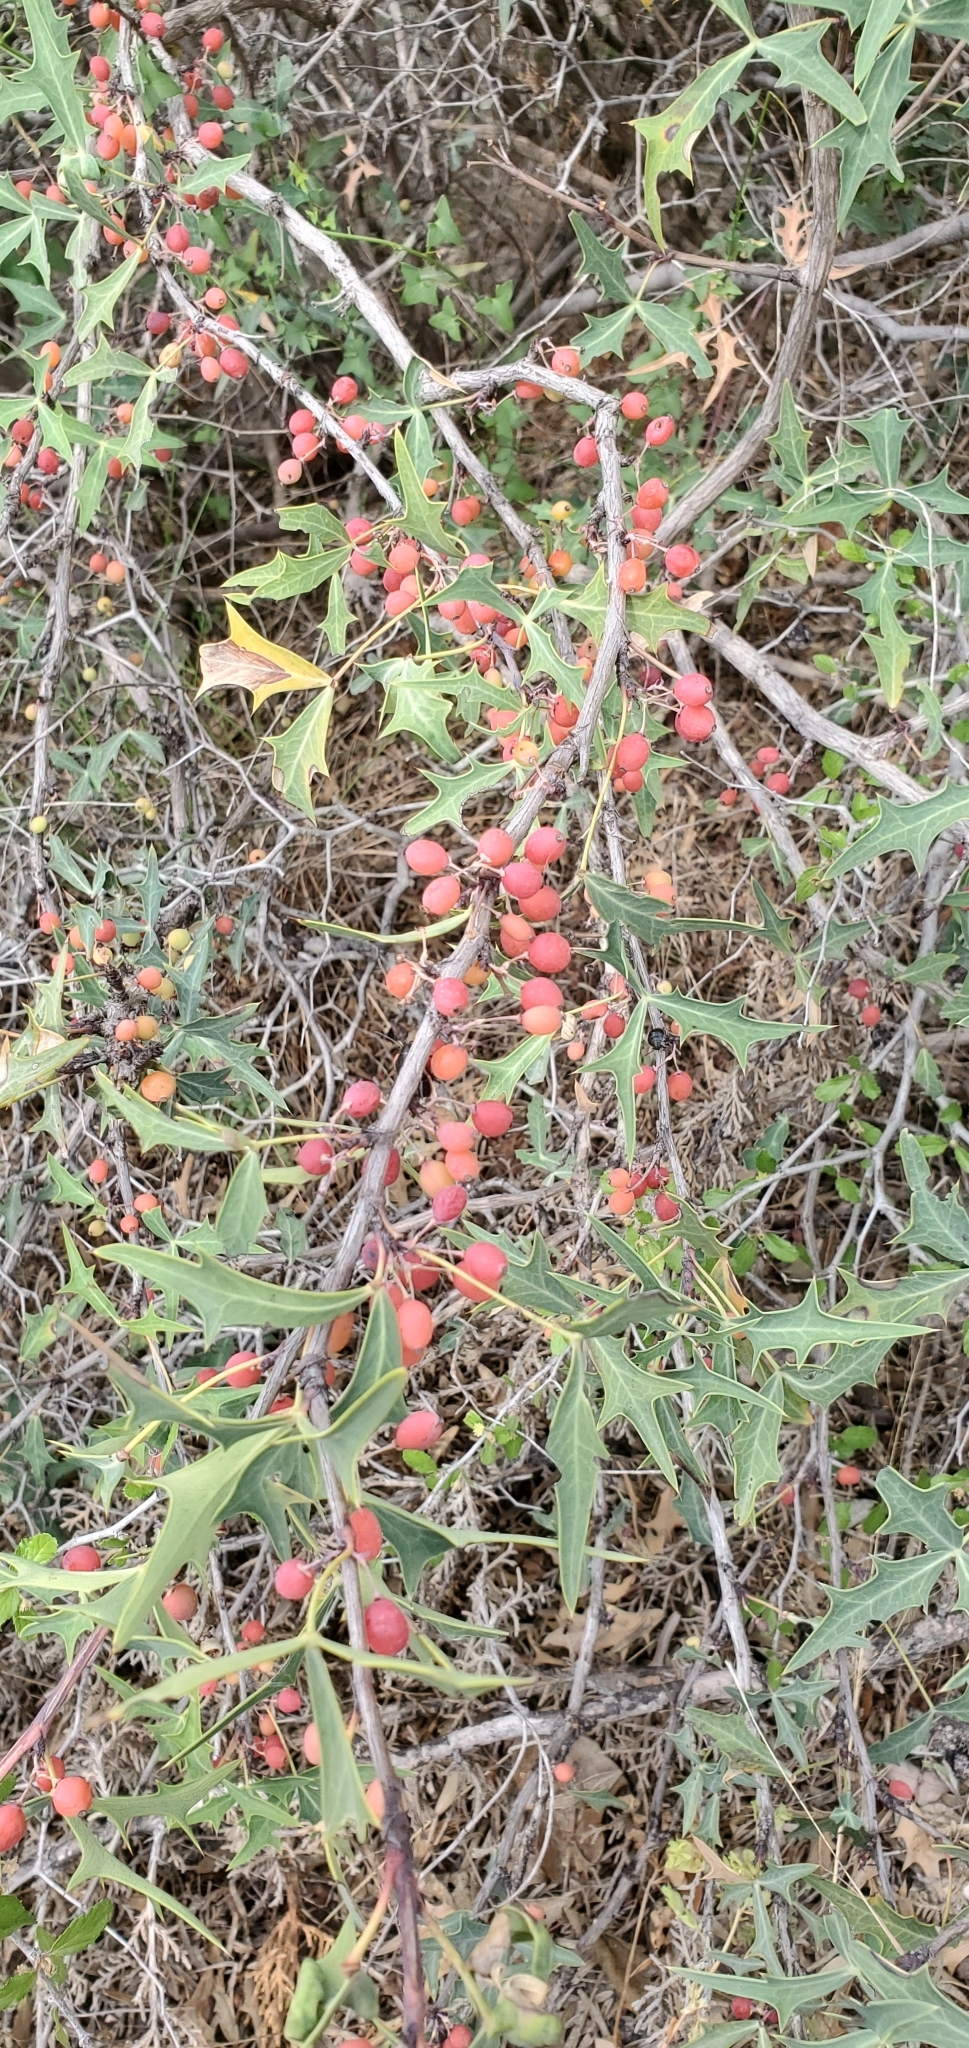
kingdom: Plantae
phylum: Tracheophyta
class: Magnoliopsida
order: Ranunculales
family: Berberidaceae
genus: Alloberberis
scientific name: Alloberberis trifoliolata
